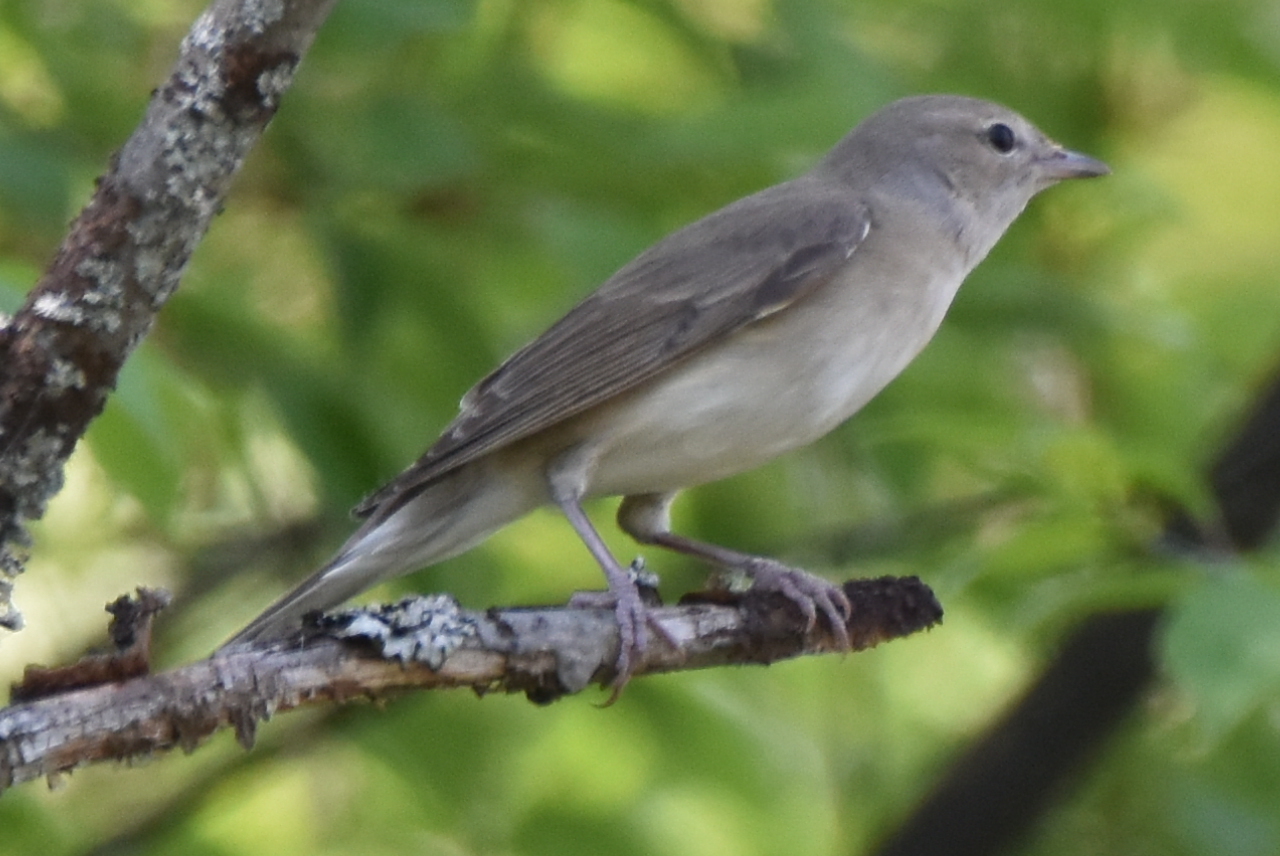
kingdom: Animalia
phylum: Chordata
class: Aves
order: Passeriformes
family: Sylviidae
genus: Sylvia
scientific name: Sylvia borin
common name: Garden warbler
